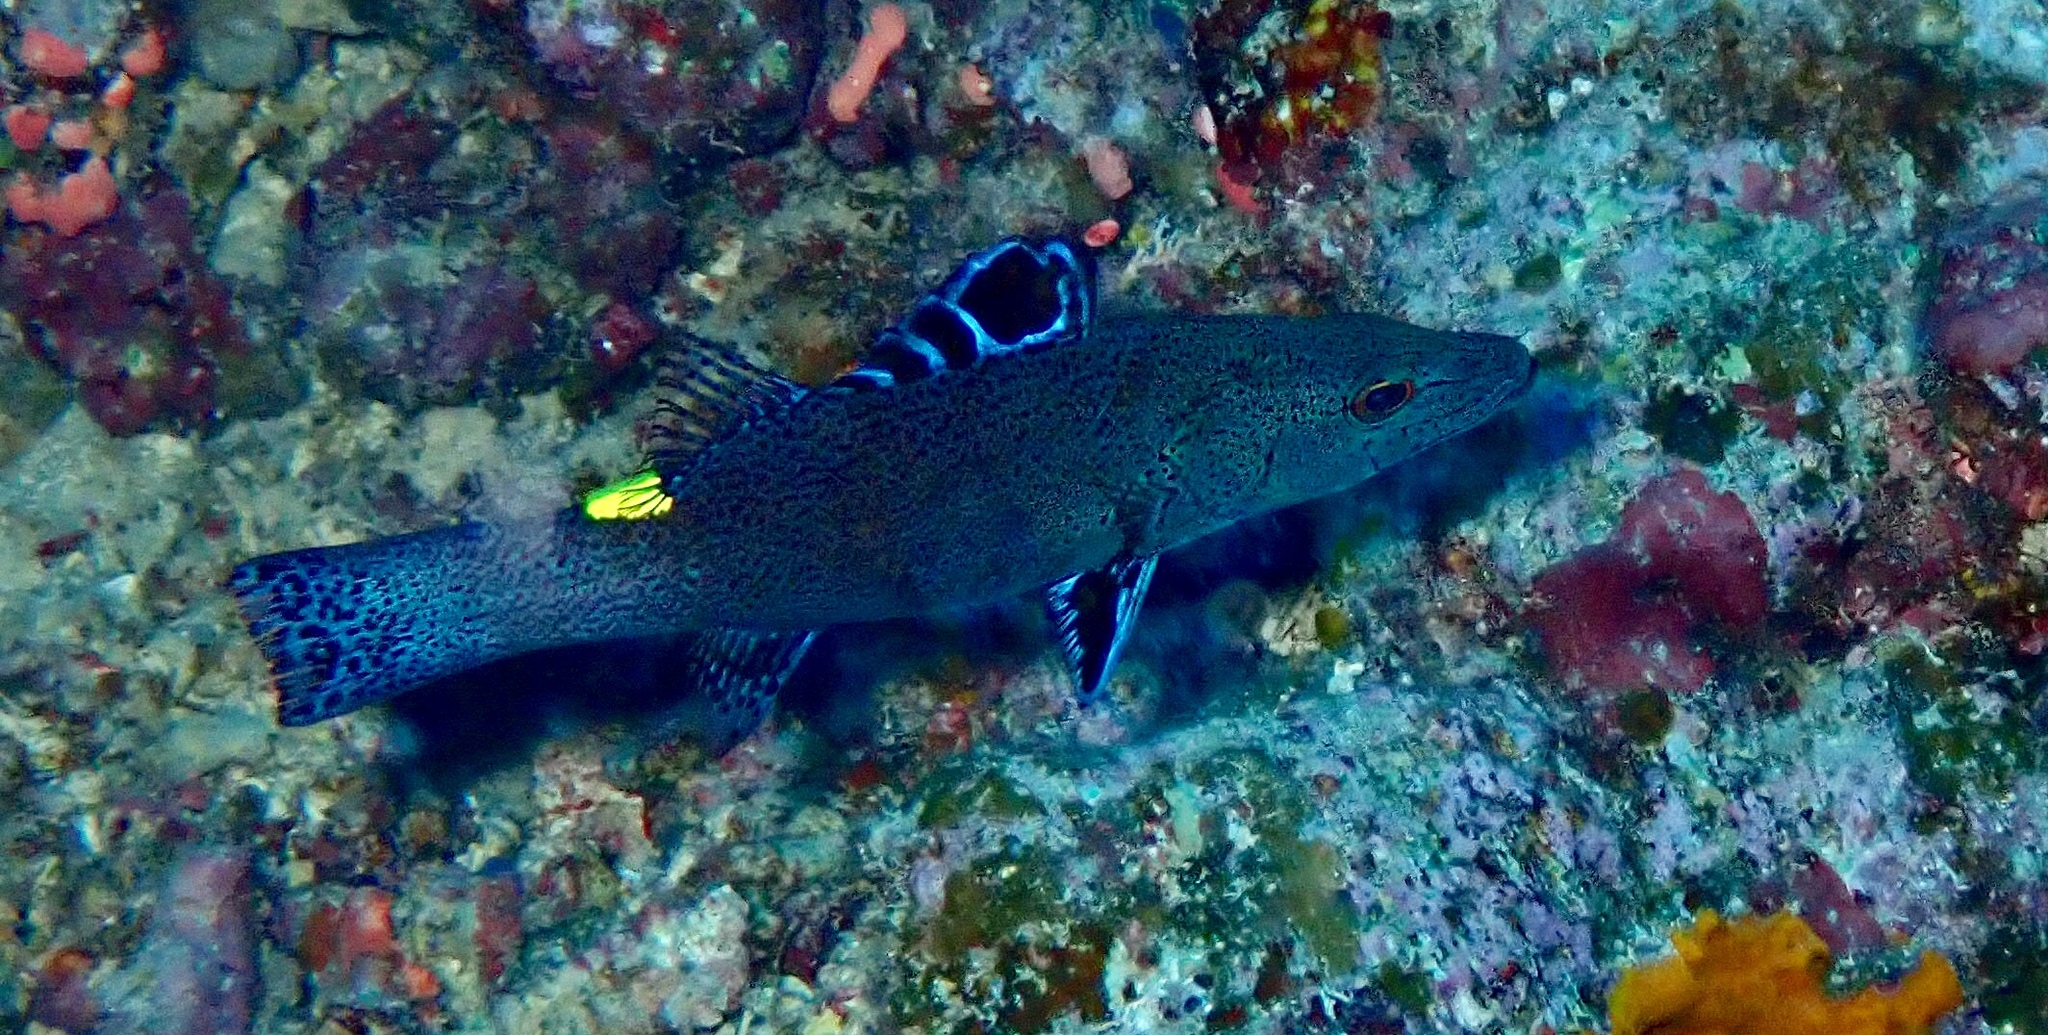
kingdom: Animalia
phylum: Chordata
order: Perciformes
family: Serranidae
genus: Belonoperca
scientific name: Belonoperca chabanaudi
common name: Arrowhead soapfish
